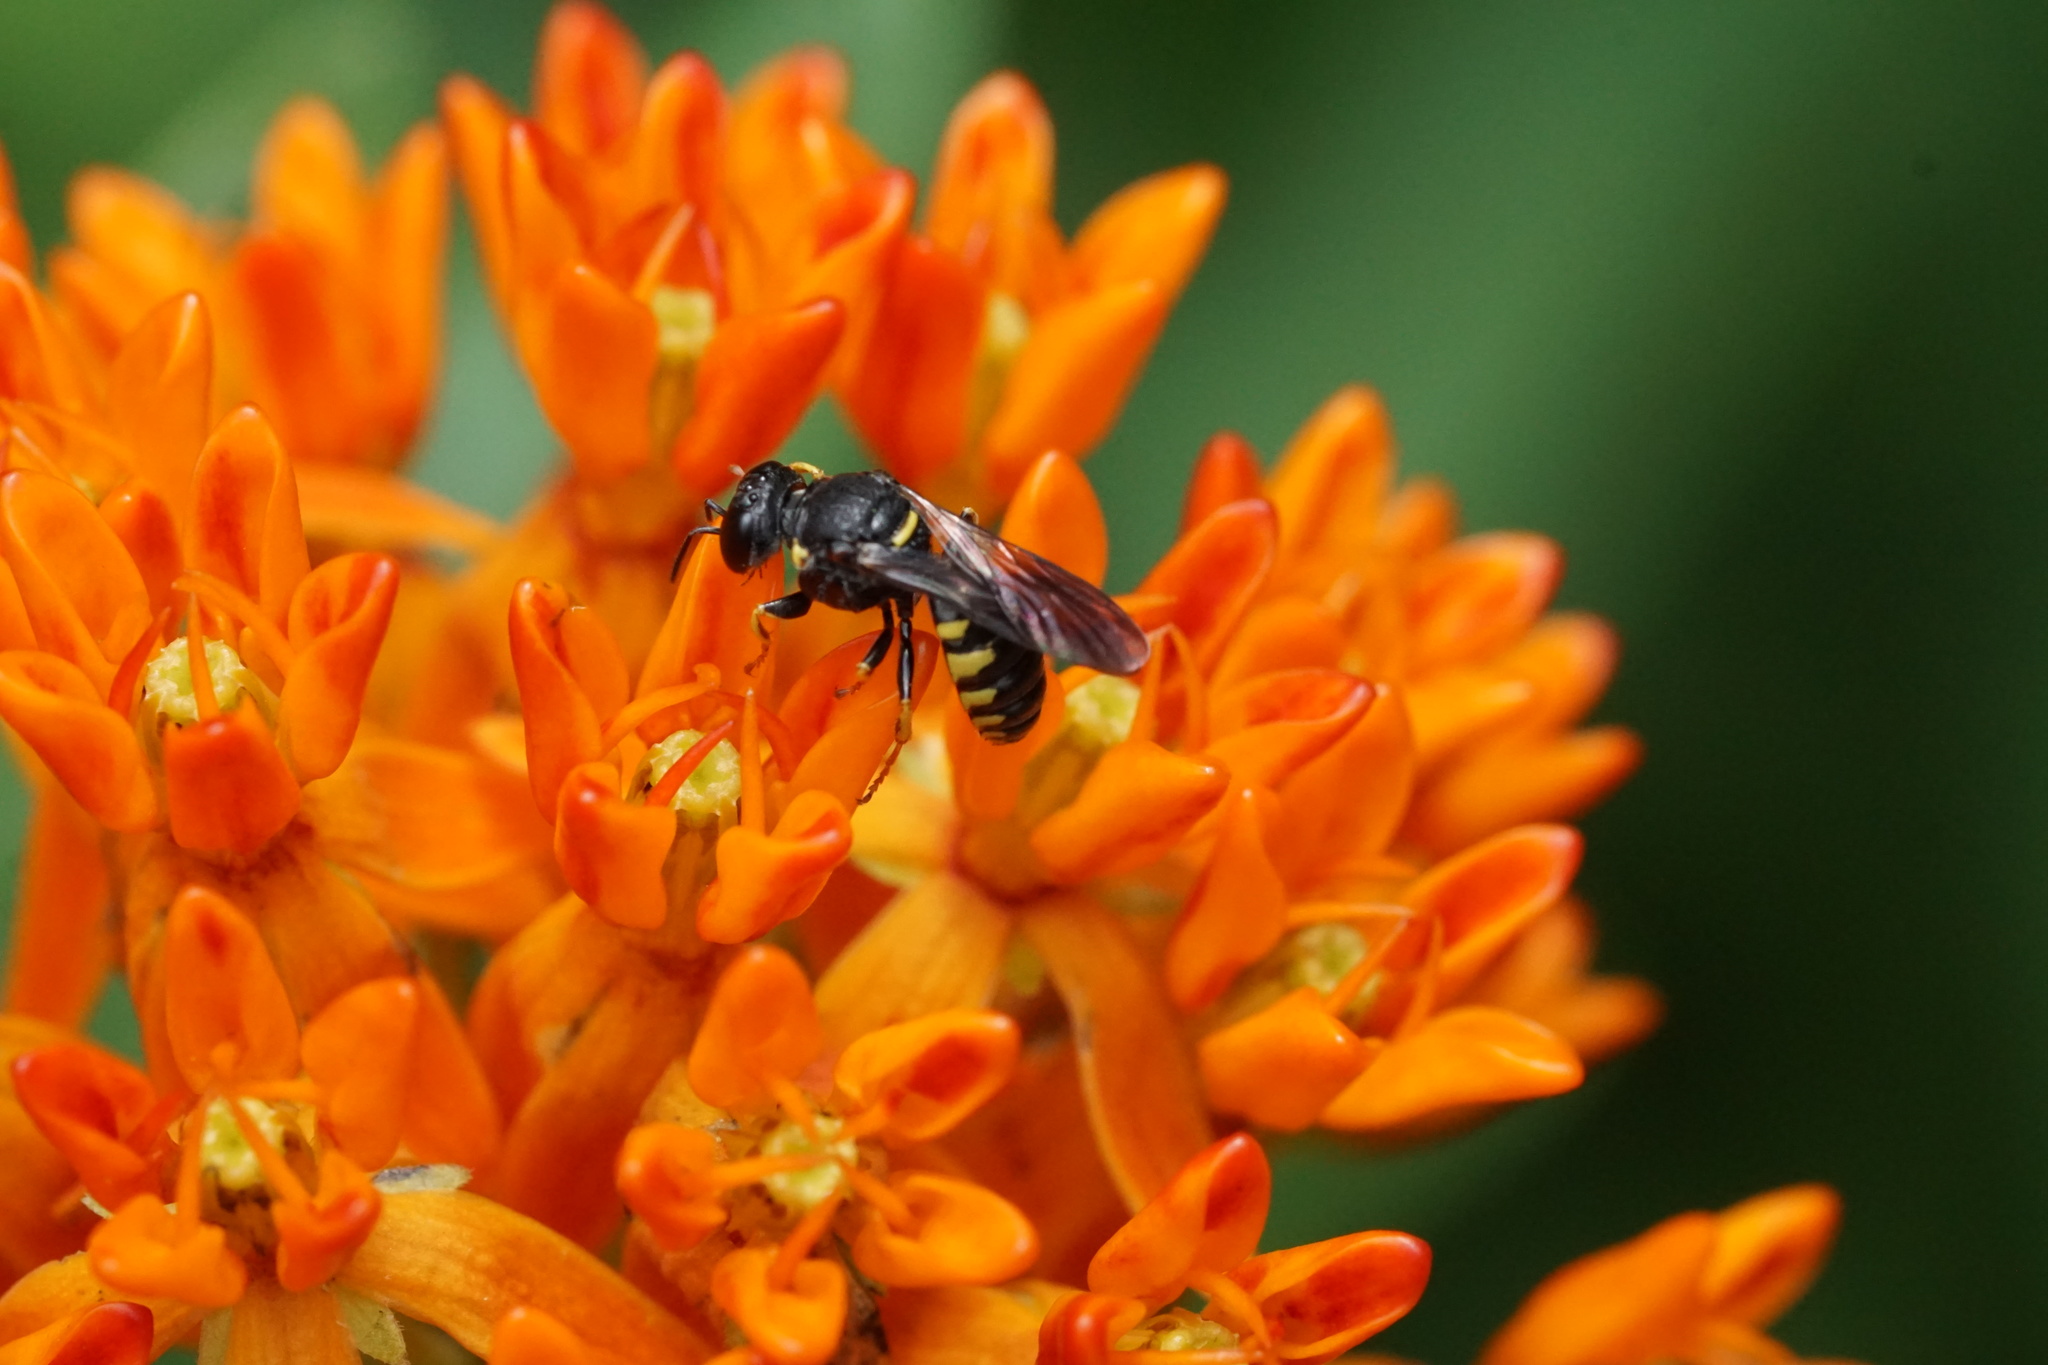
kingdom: Animalia
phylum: Arthropoda
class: Insecta
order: Hymenoptera
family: Crabronidae
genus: Anacrabro
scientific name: Anacrabro ocellatus
